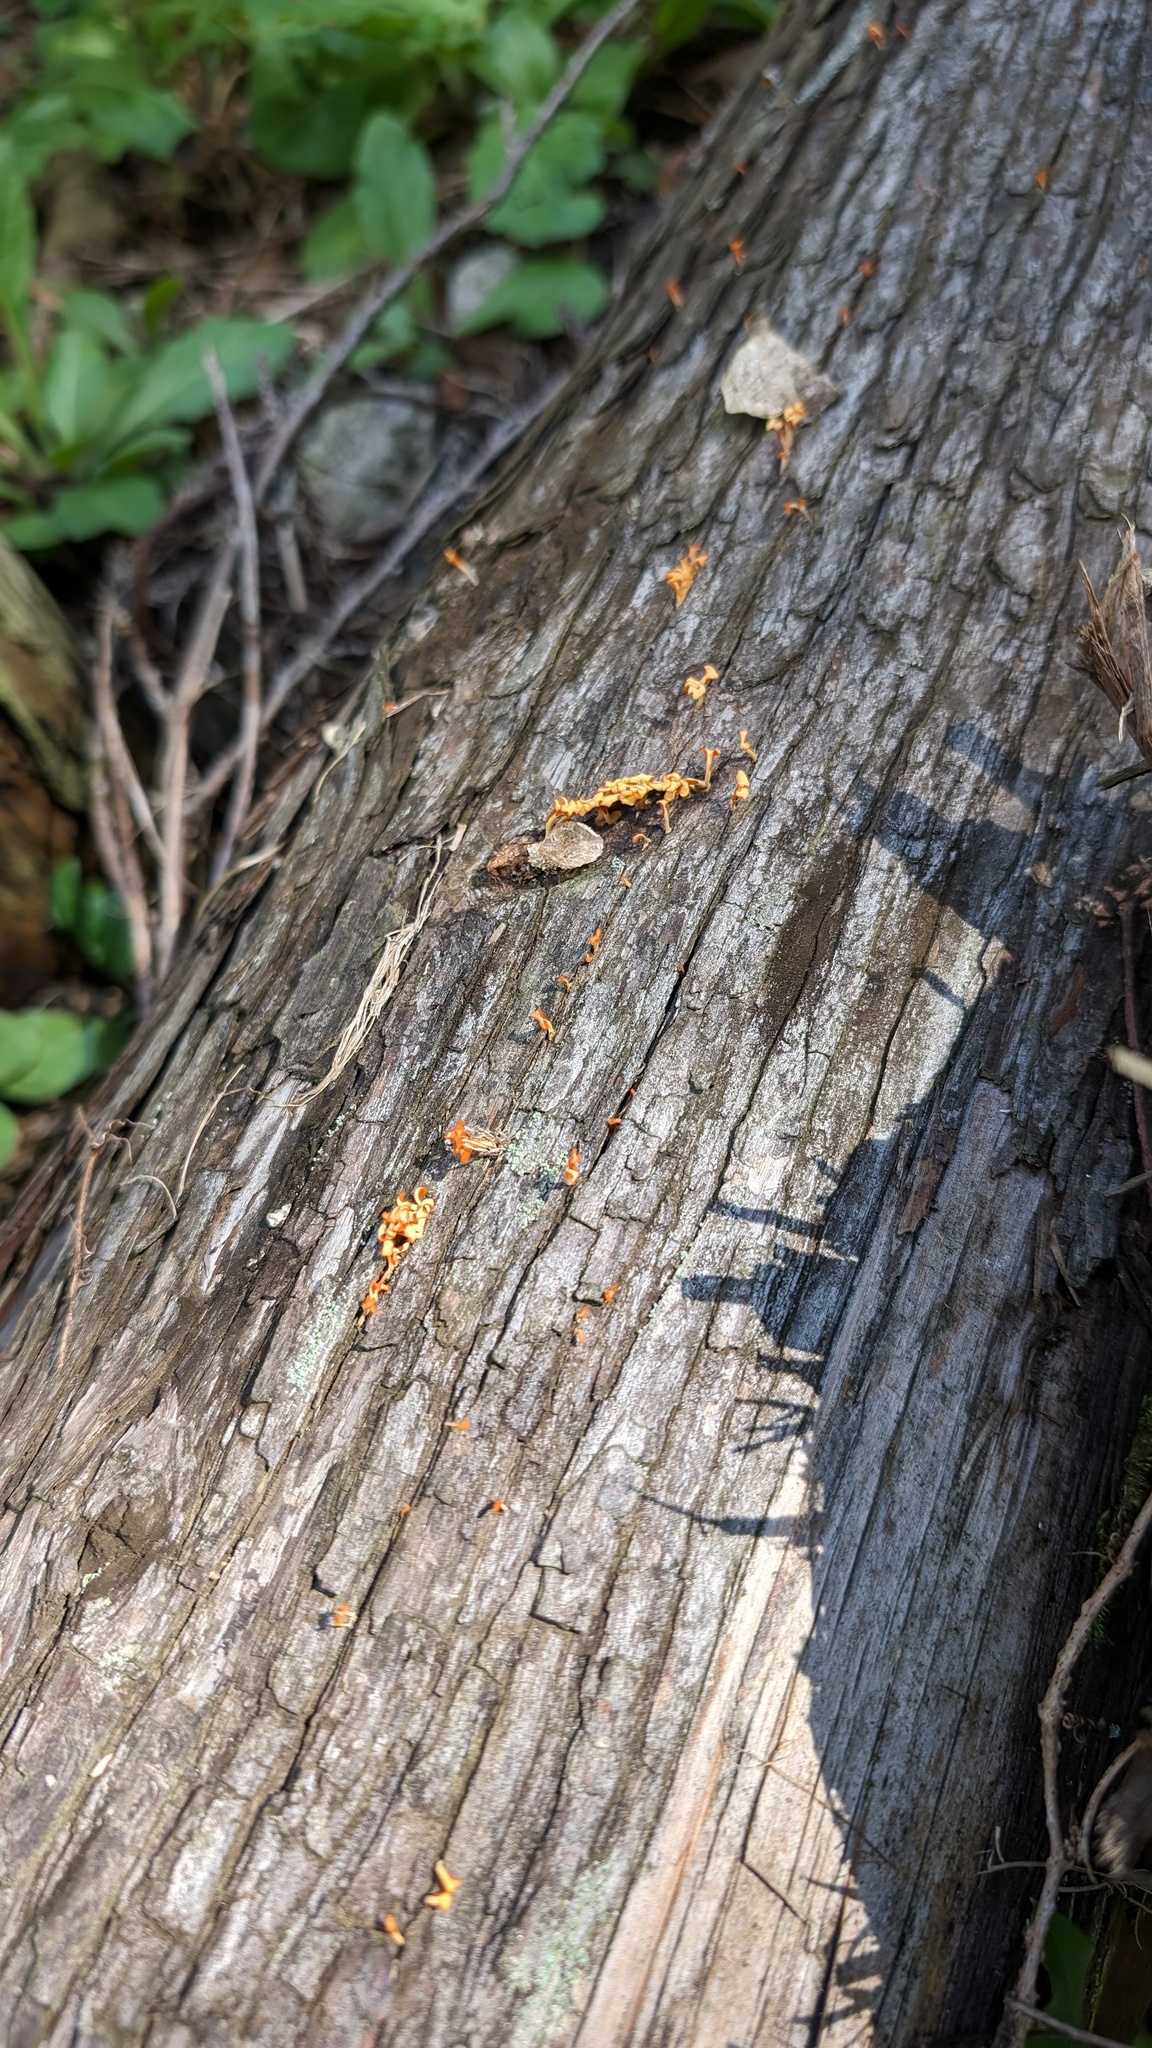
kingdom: Fungi
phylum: Basidiomycota
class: Dacrymycetes
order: Dacrymycetales
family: Dacrymycetaceae
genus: Dacrymyces
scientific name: Dacrymyces spathularius
